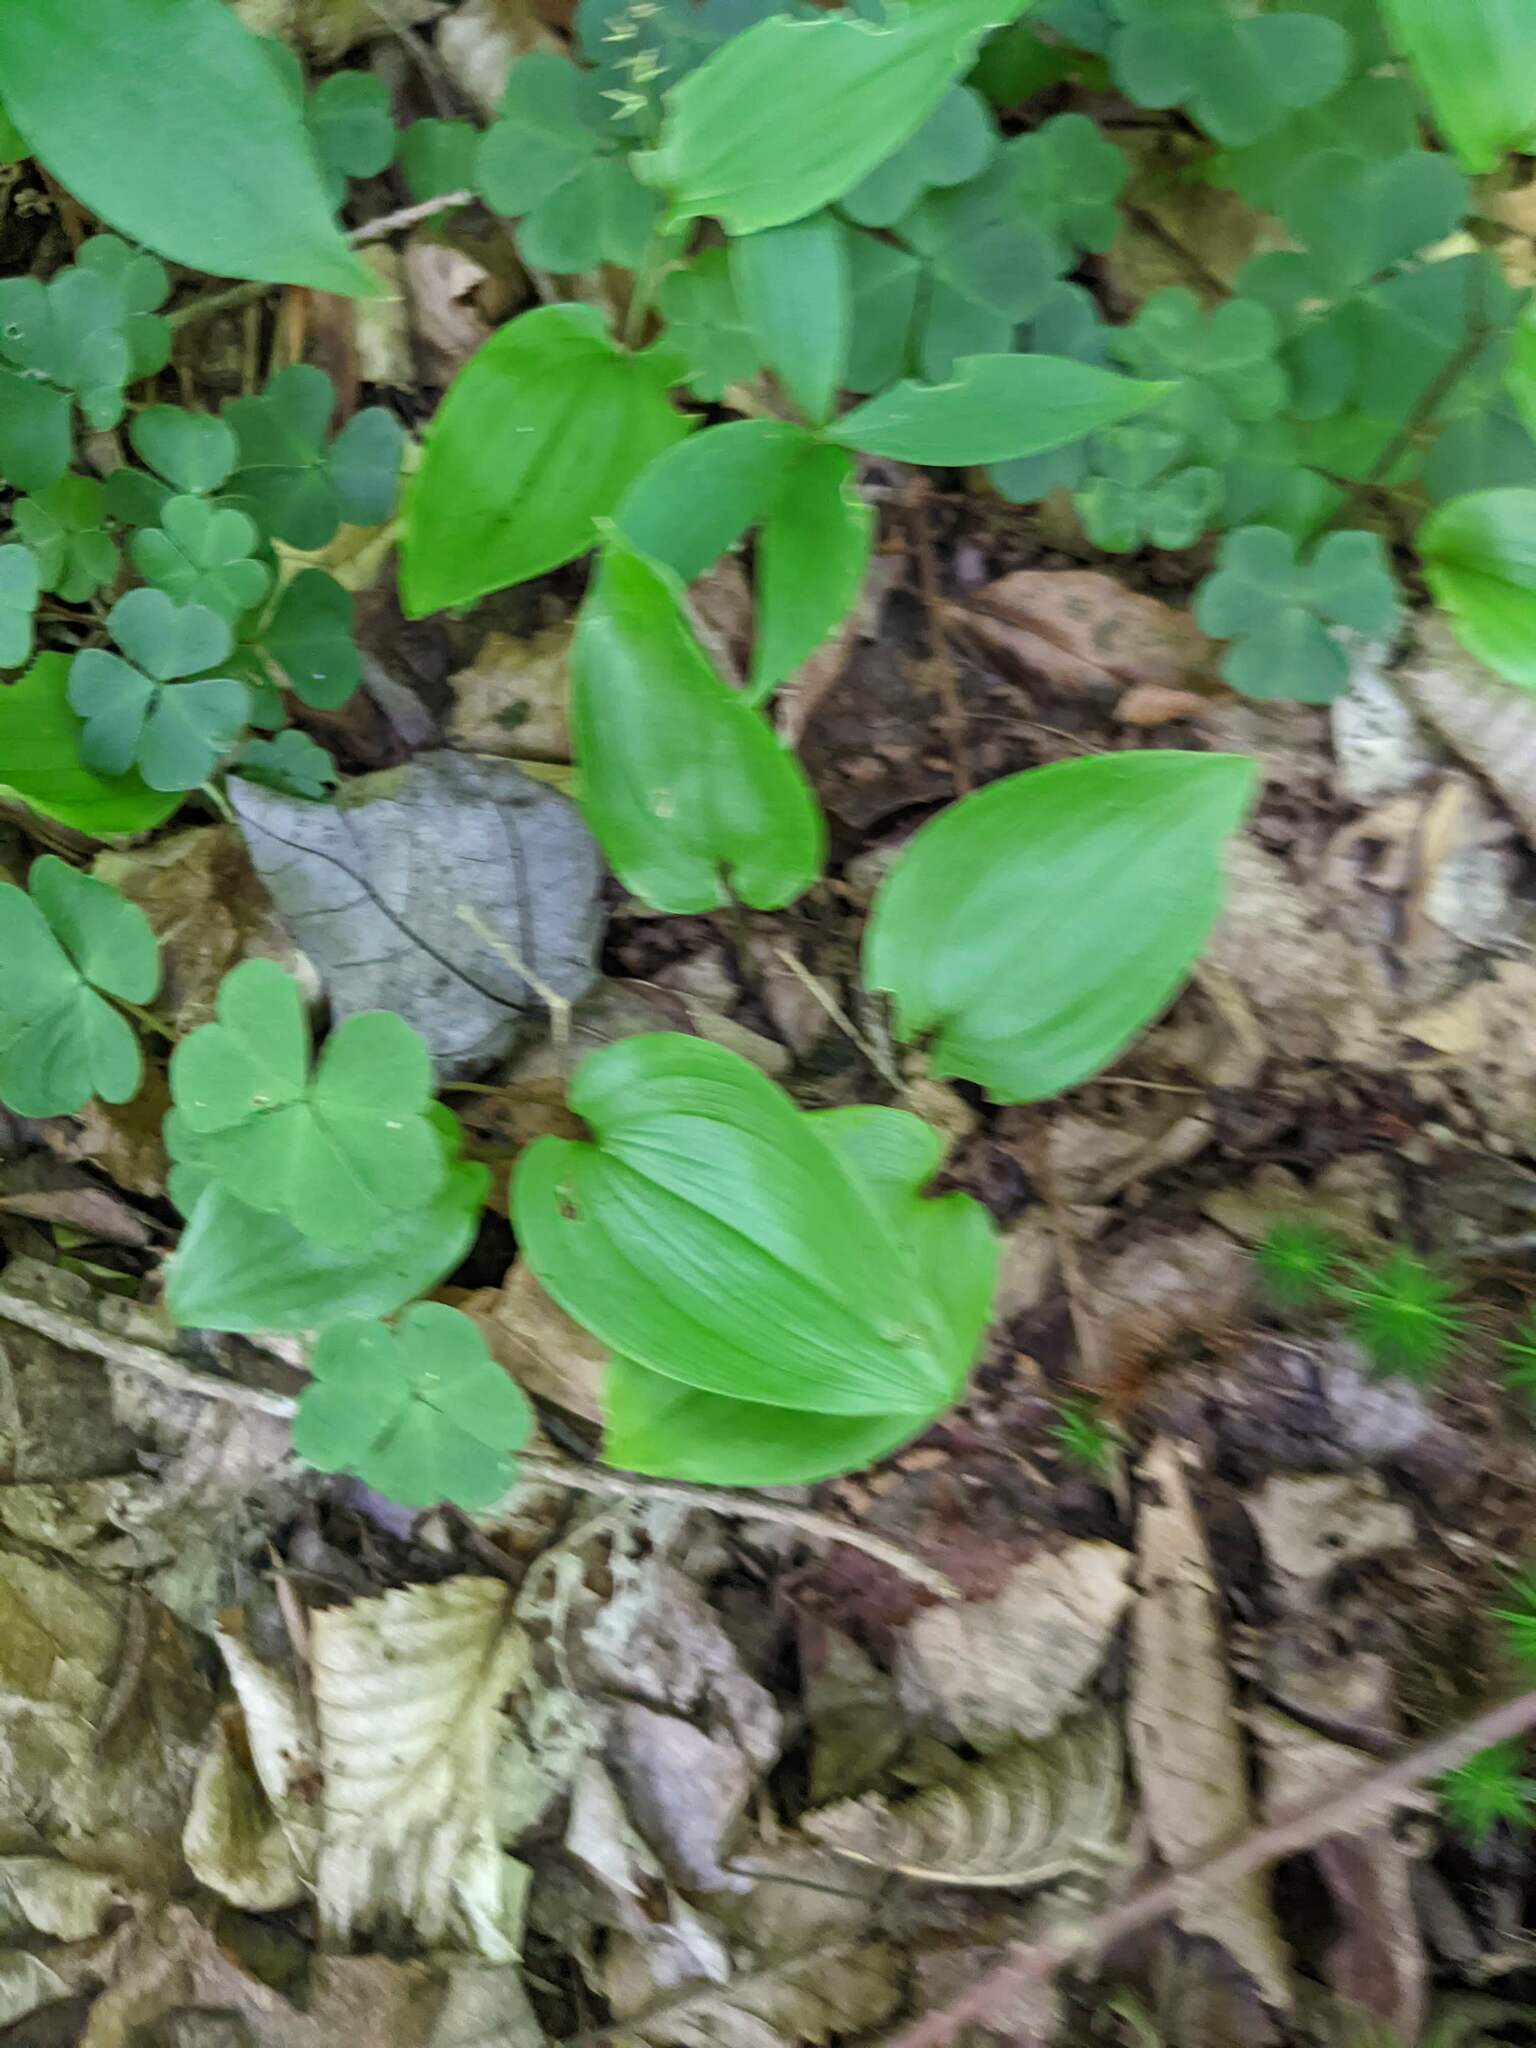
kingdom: Plantae
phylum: Tracheophyta
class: Liliopsida
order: Asparagales
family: Asparagaceae
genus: Maianthemum
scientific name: Maianthemum canadense
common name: False lily-of-the-valley
